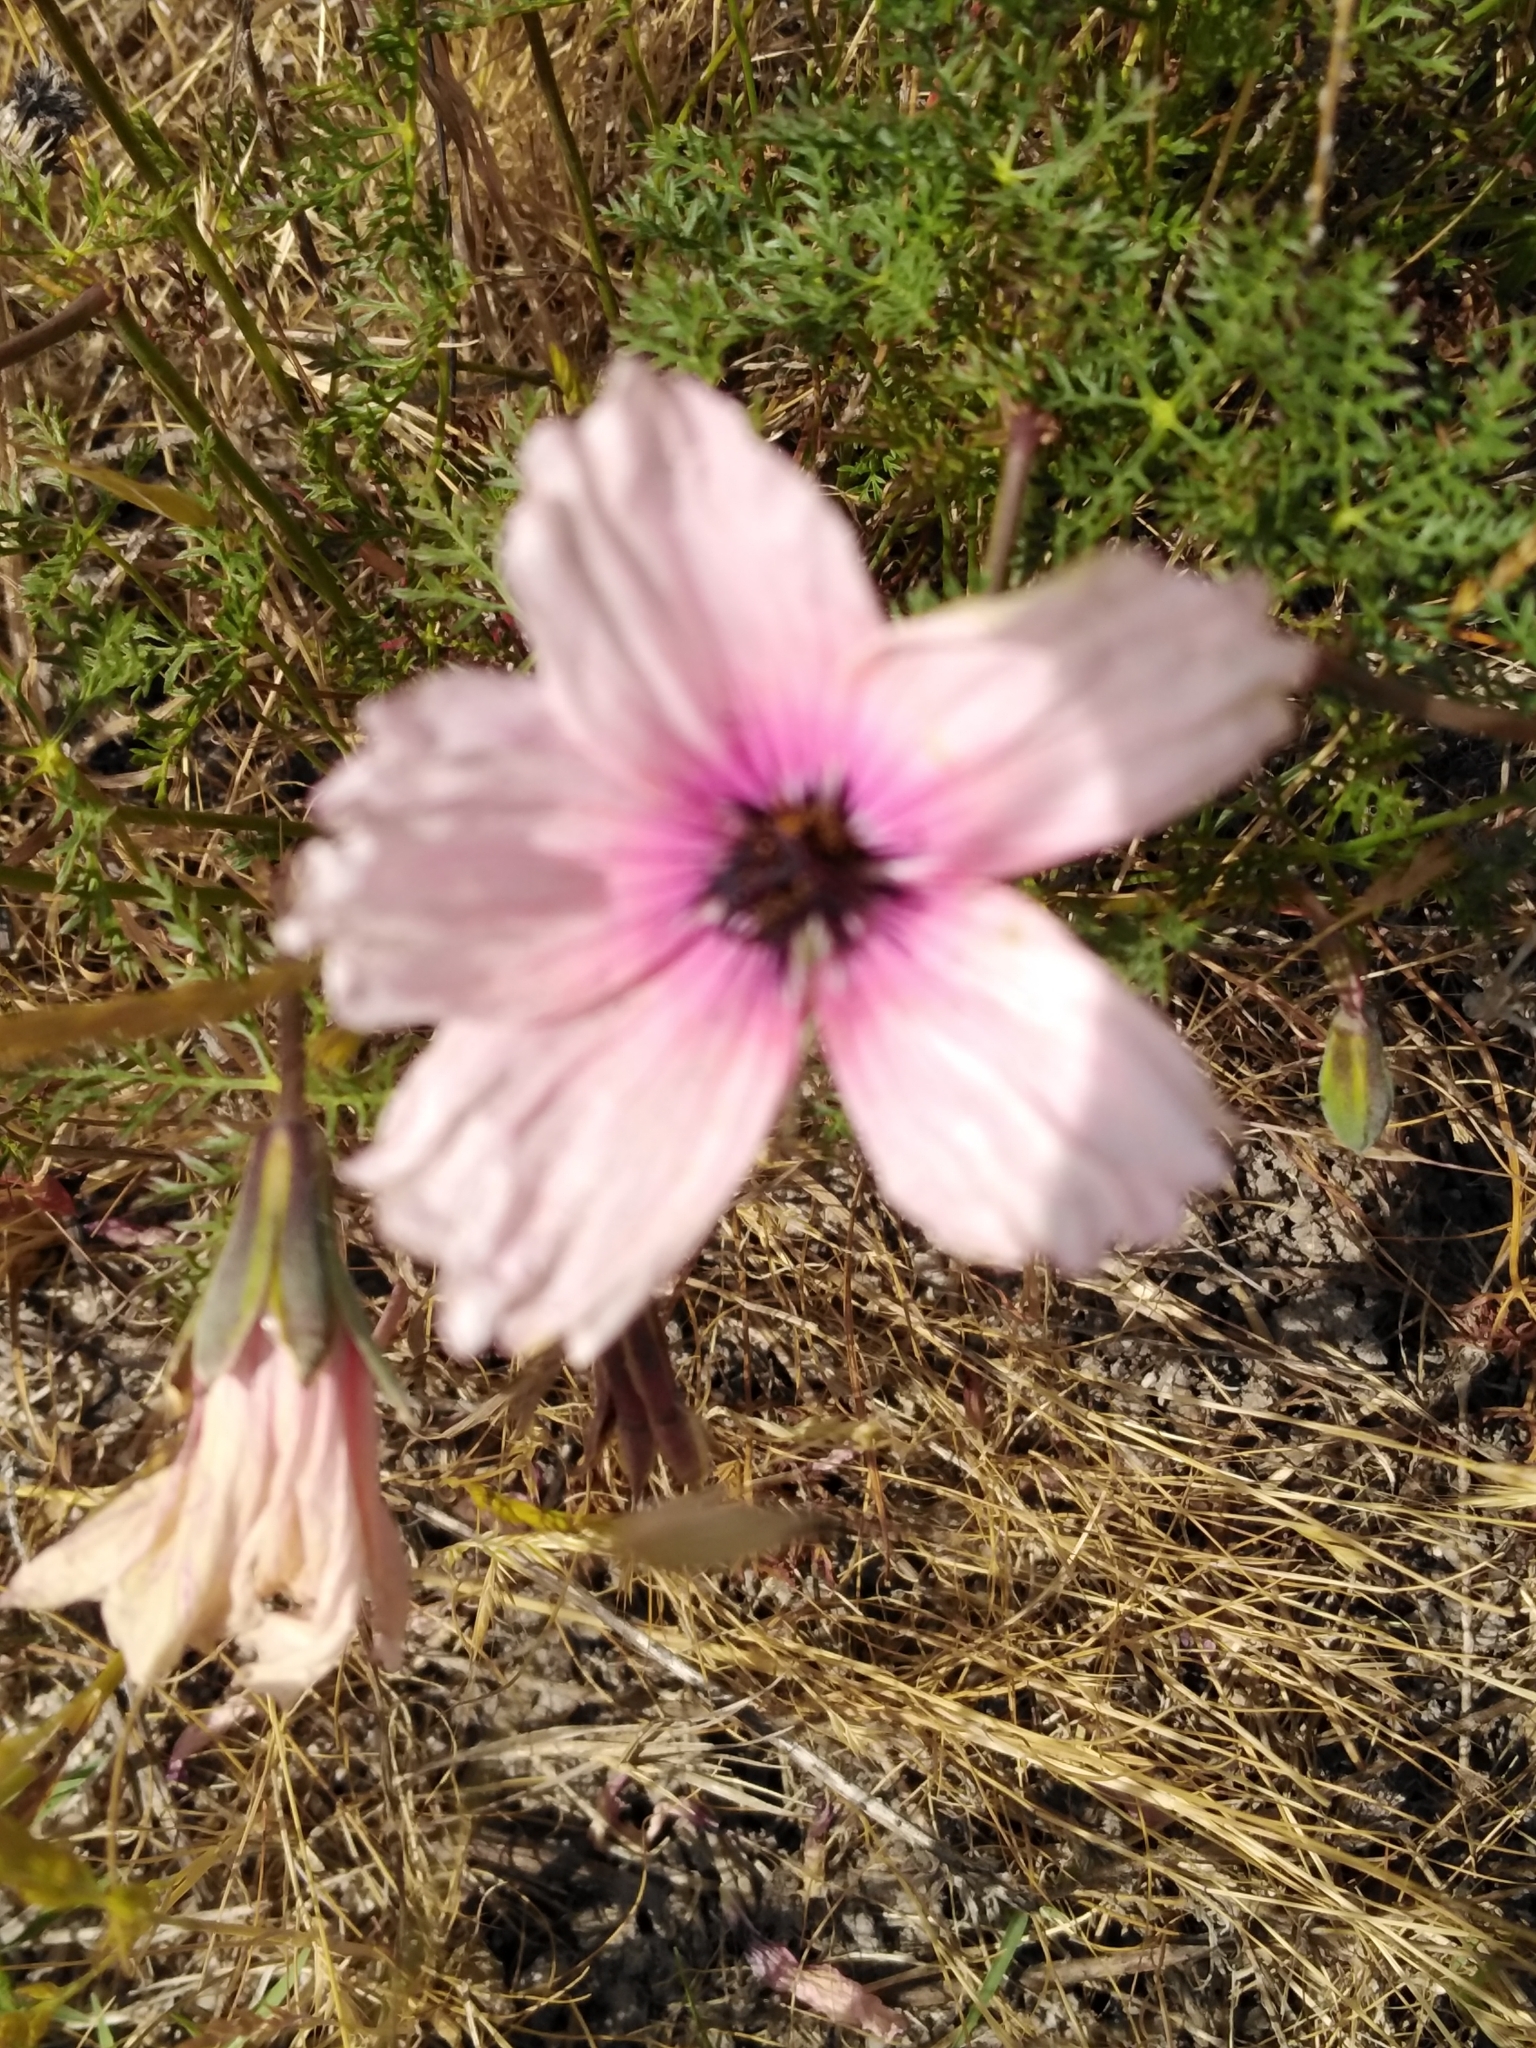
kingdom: Plantae
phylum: Tracheophyta
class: Magnoliopsida
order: Geraniales
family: Geraniaceae
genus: Monsonia
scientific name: Monsonia speciosa
